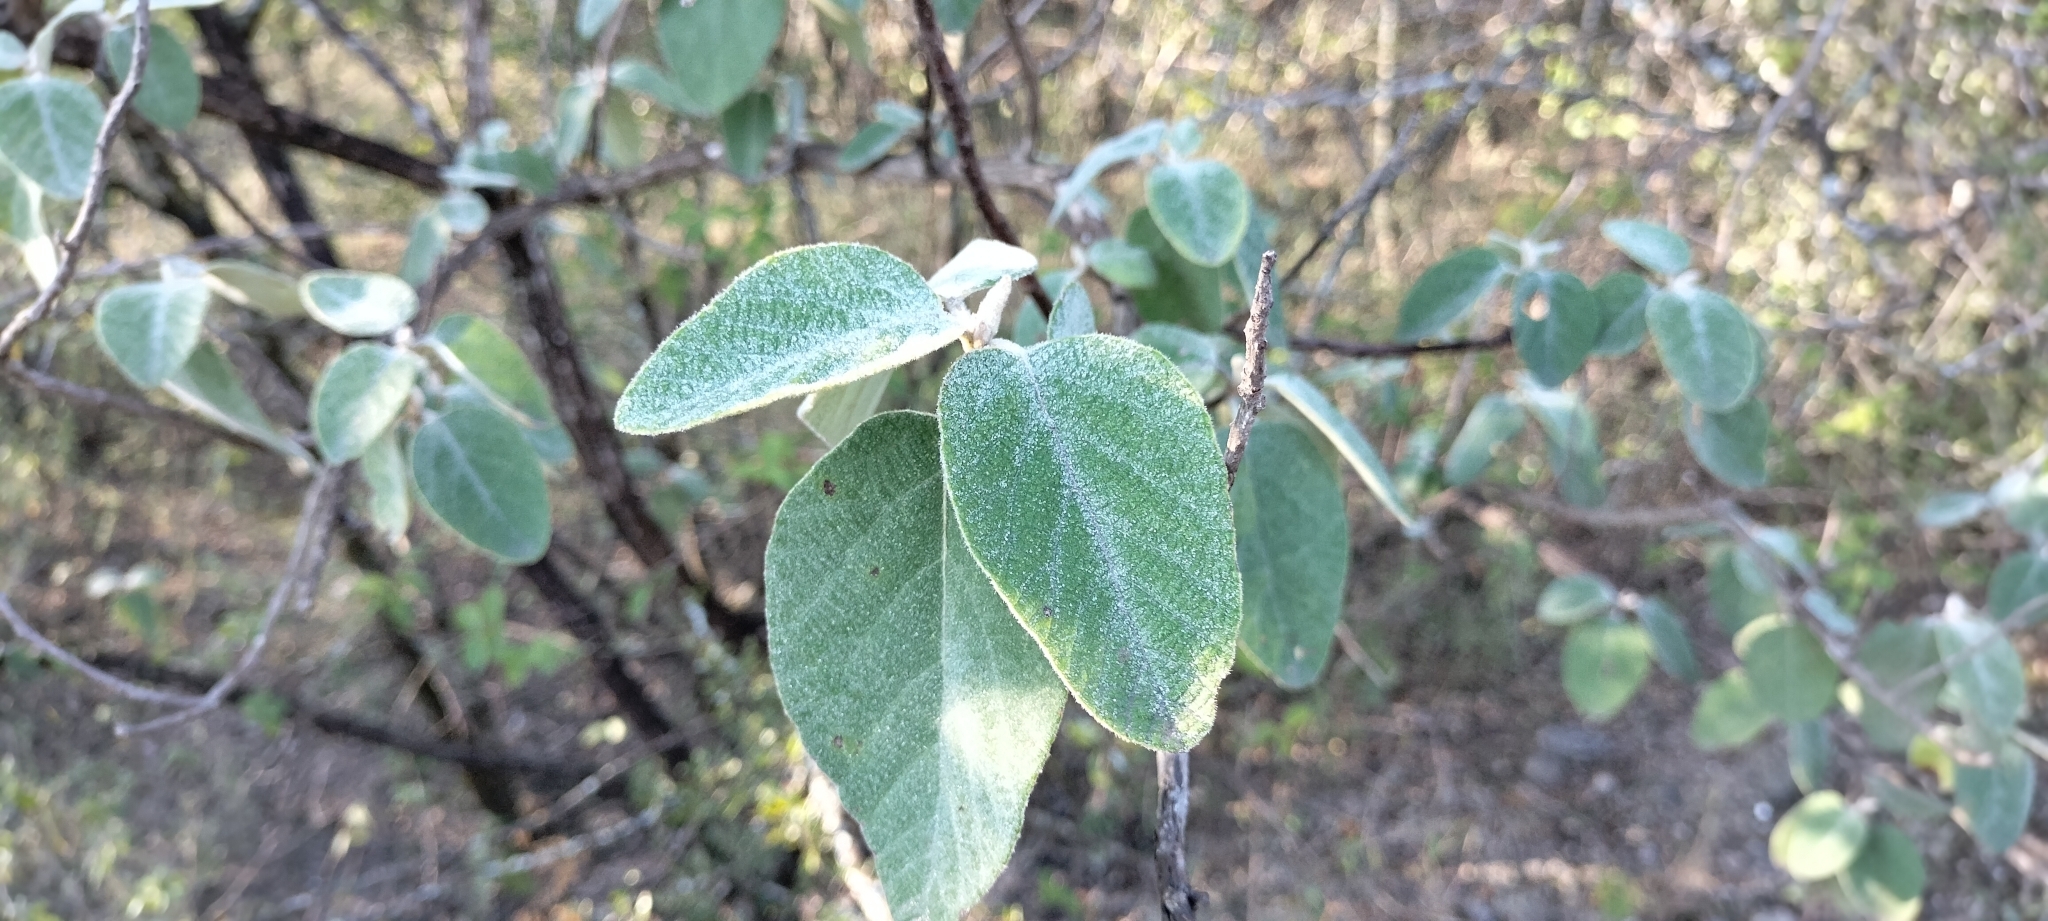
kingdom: Plantae
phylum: Tracheophyta
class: Magnoliopsida
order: Boraginales
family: Cordiaceae
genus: Cordia
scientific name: Cordia boissieri
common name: Mexican-olive
